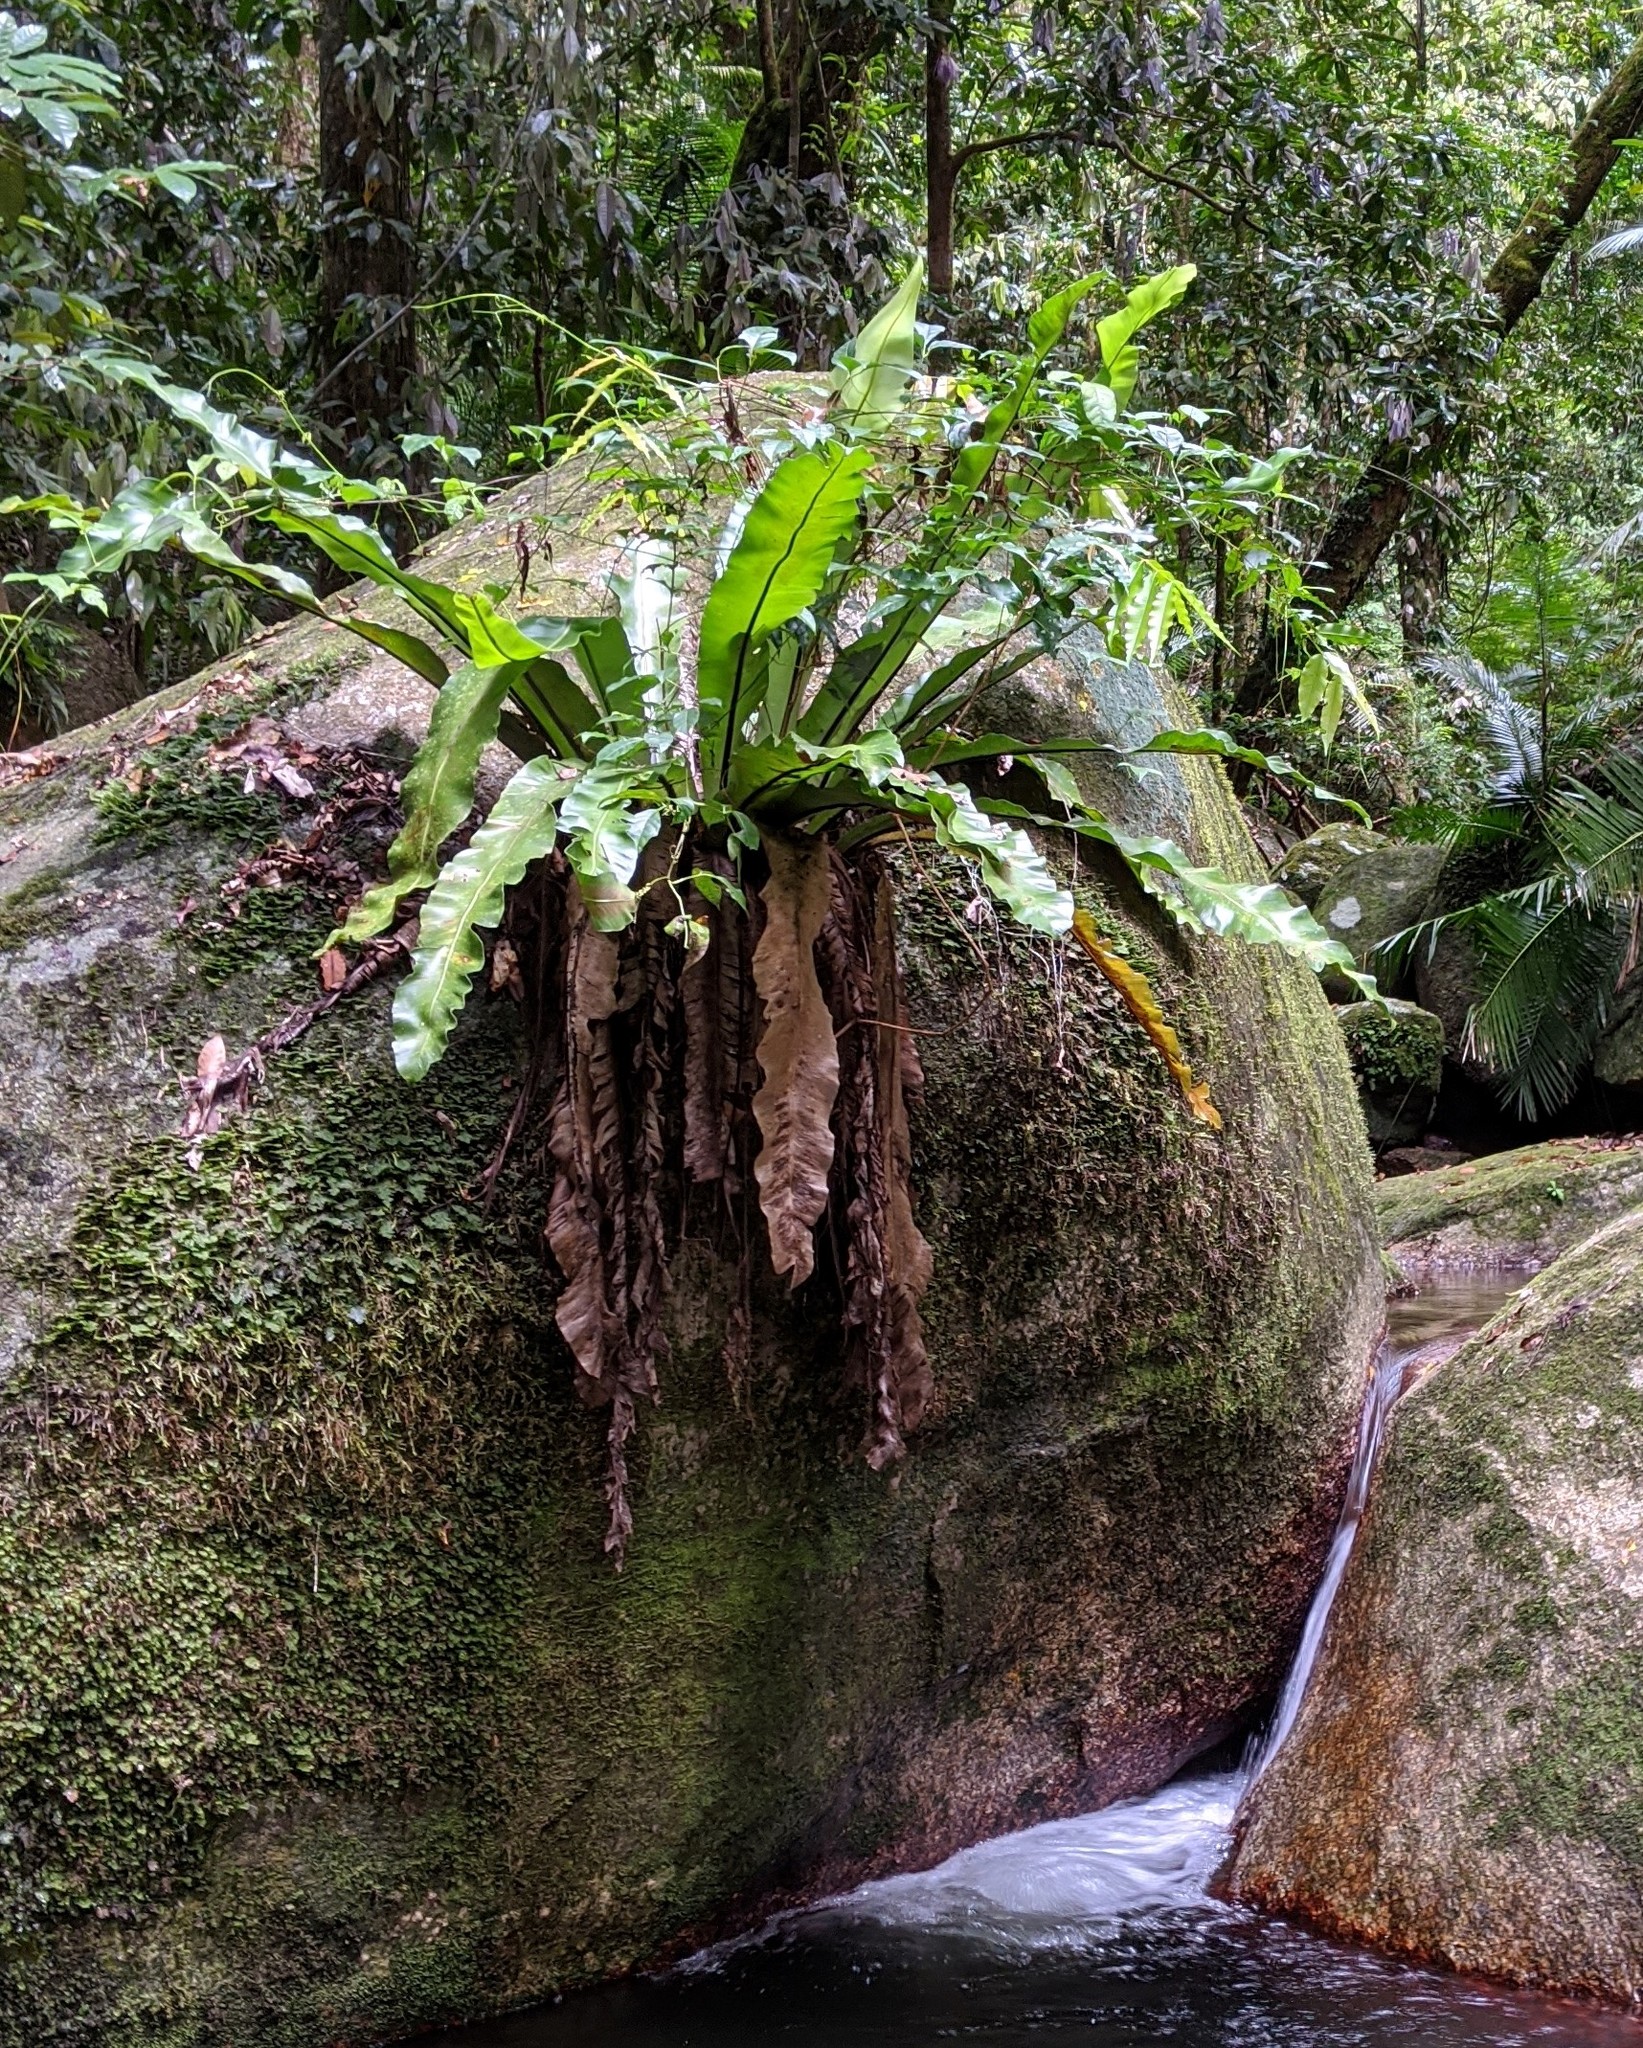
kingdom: Plantae
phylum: Tracheophyta
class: Polypodiopsida
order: Polypodiales
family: Aspleniaceae
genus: Asplenium
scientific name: Asplenium australasicum
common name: Bird's-nest fern
